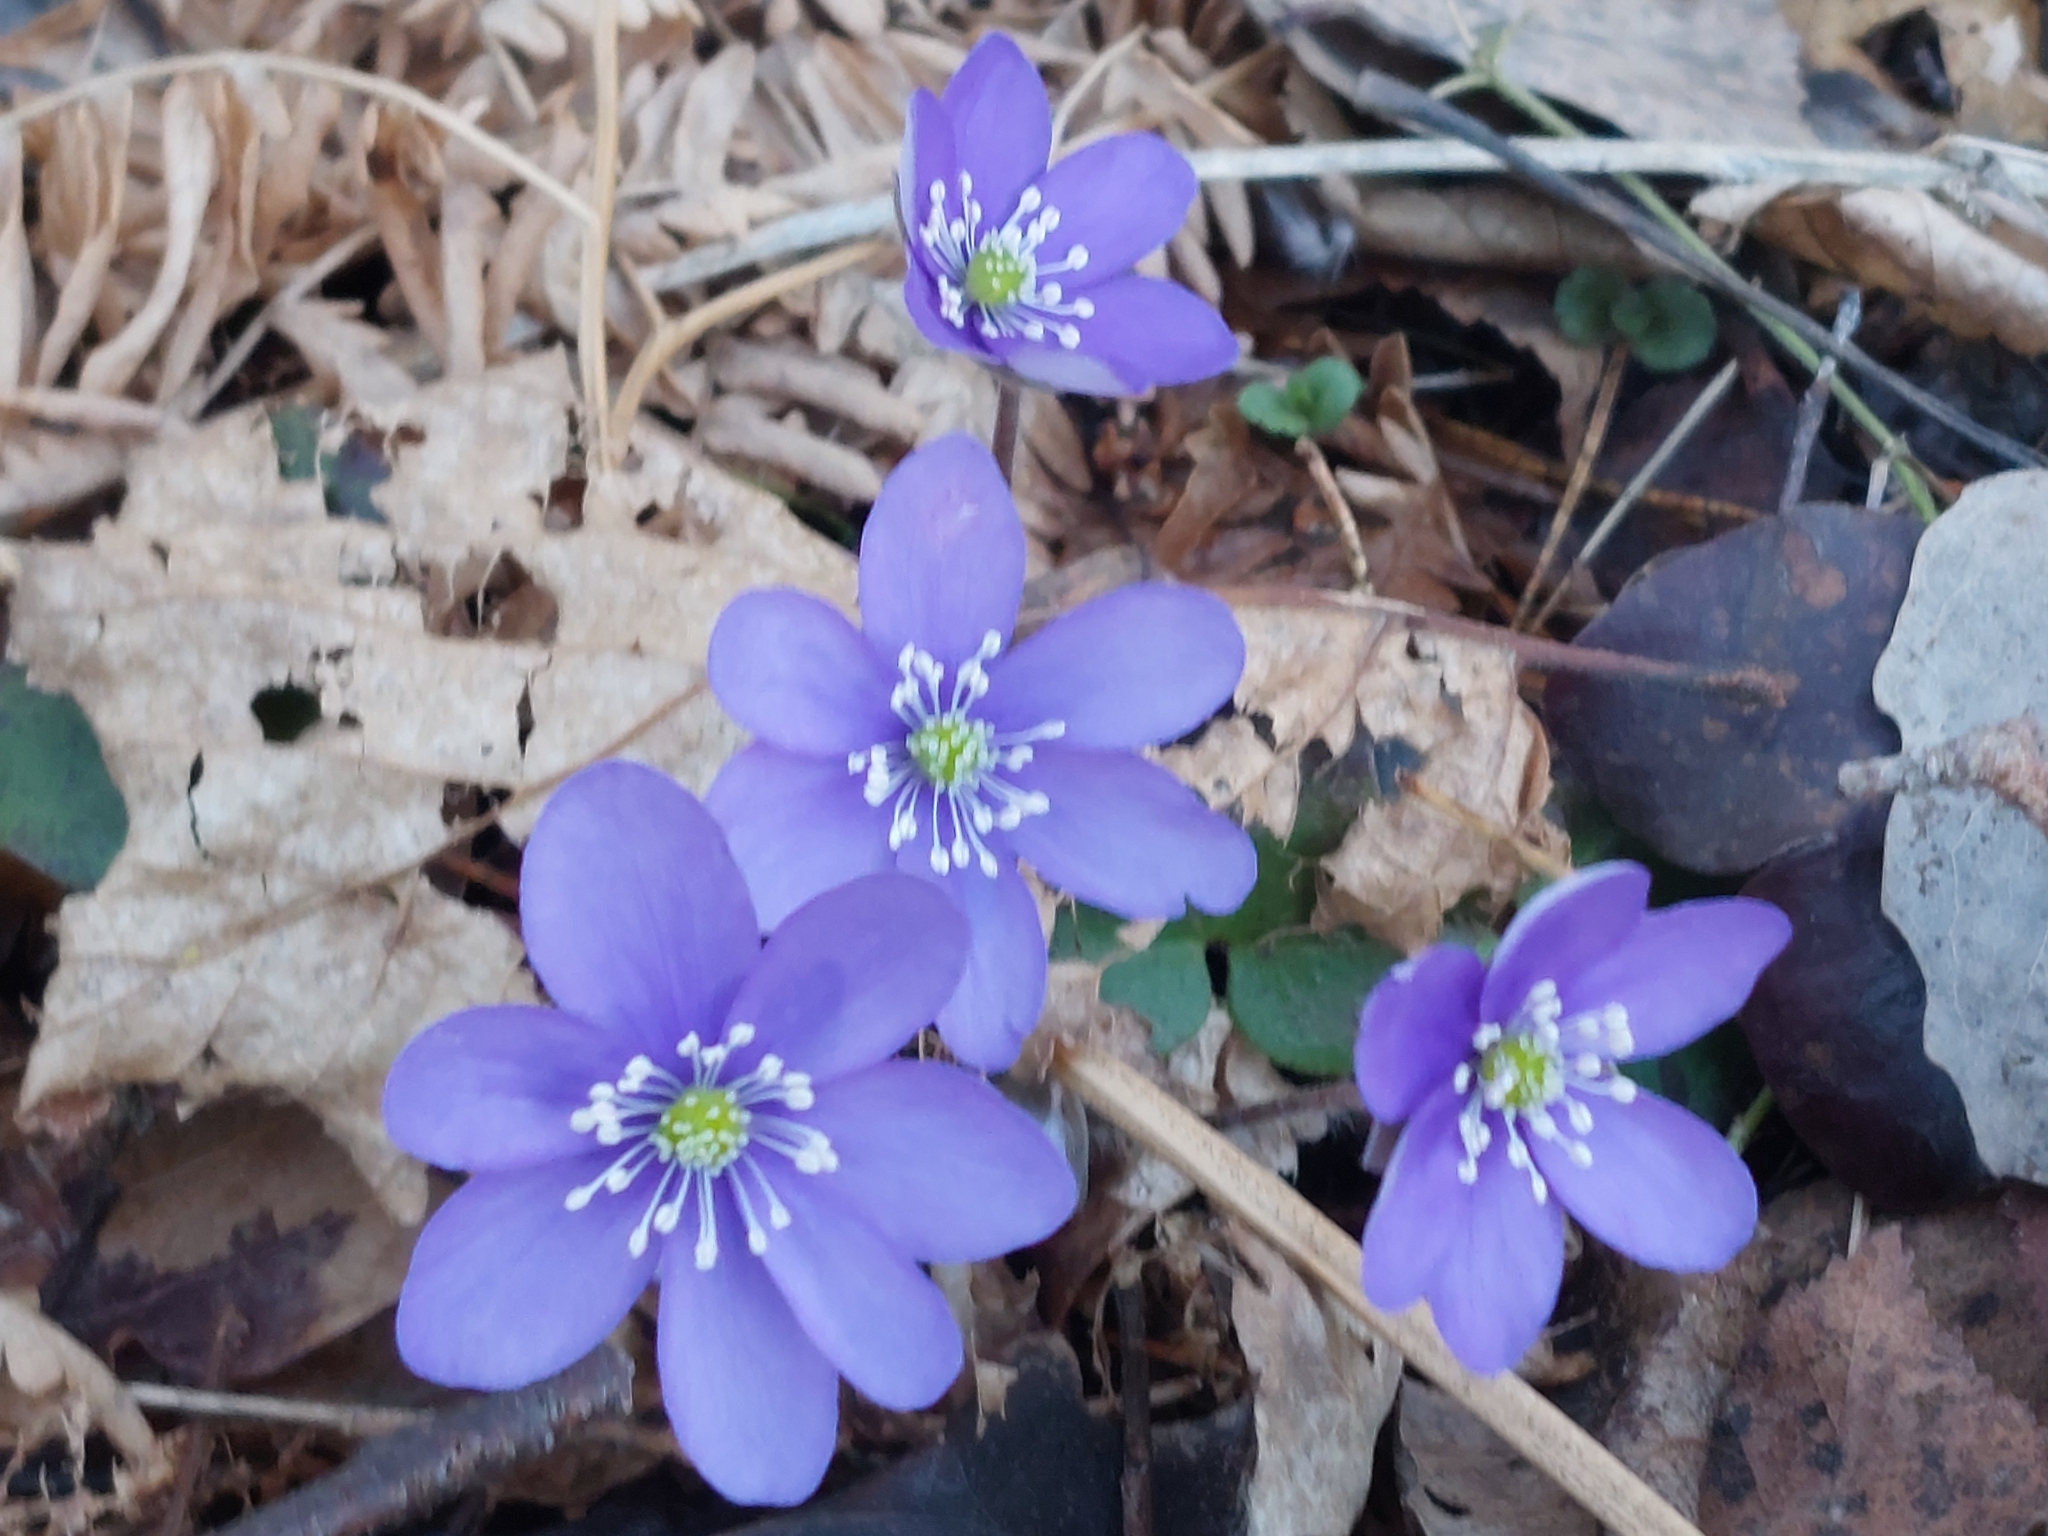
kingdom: Plantae
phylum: Tracheophyta
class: Magnoliopsida
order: Ranunculales
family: Ranunculaceae
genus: Hepatica
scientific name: Hepatica nobilis
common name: Liverleaf
